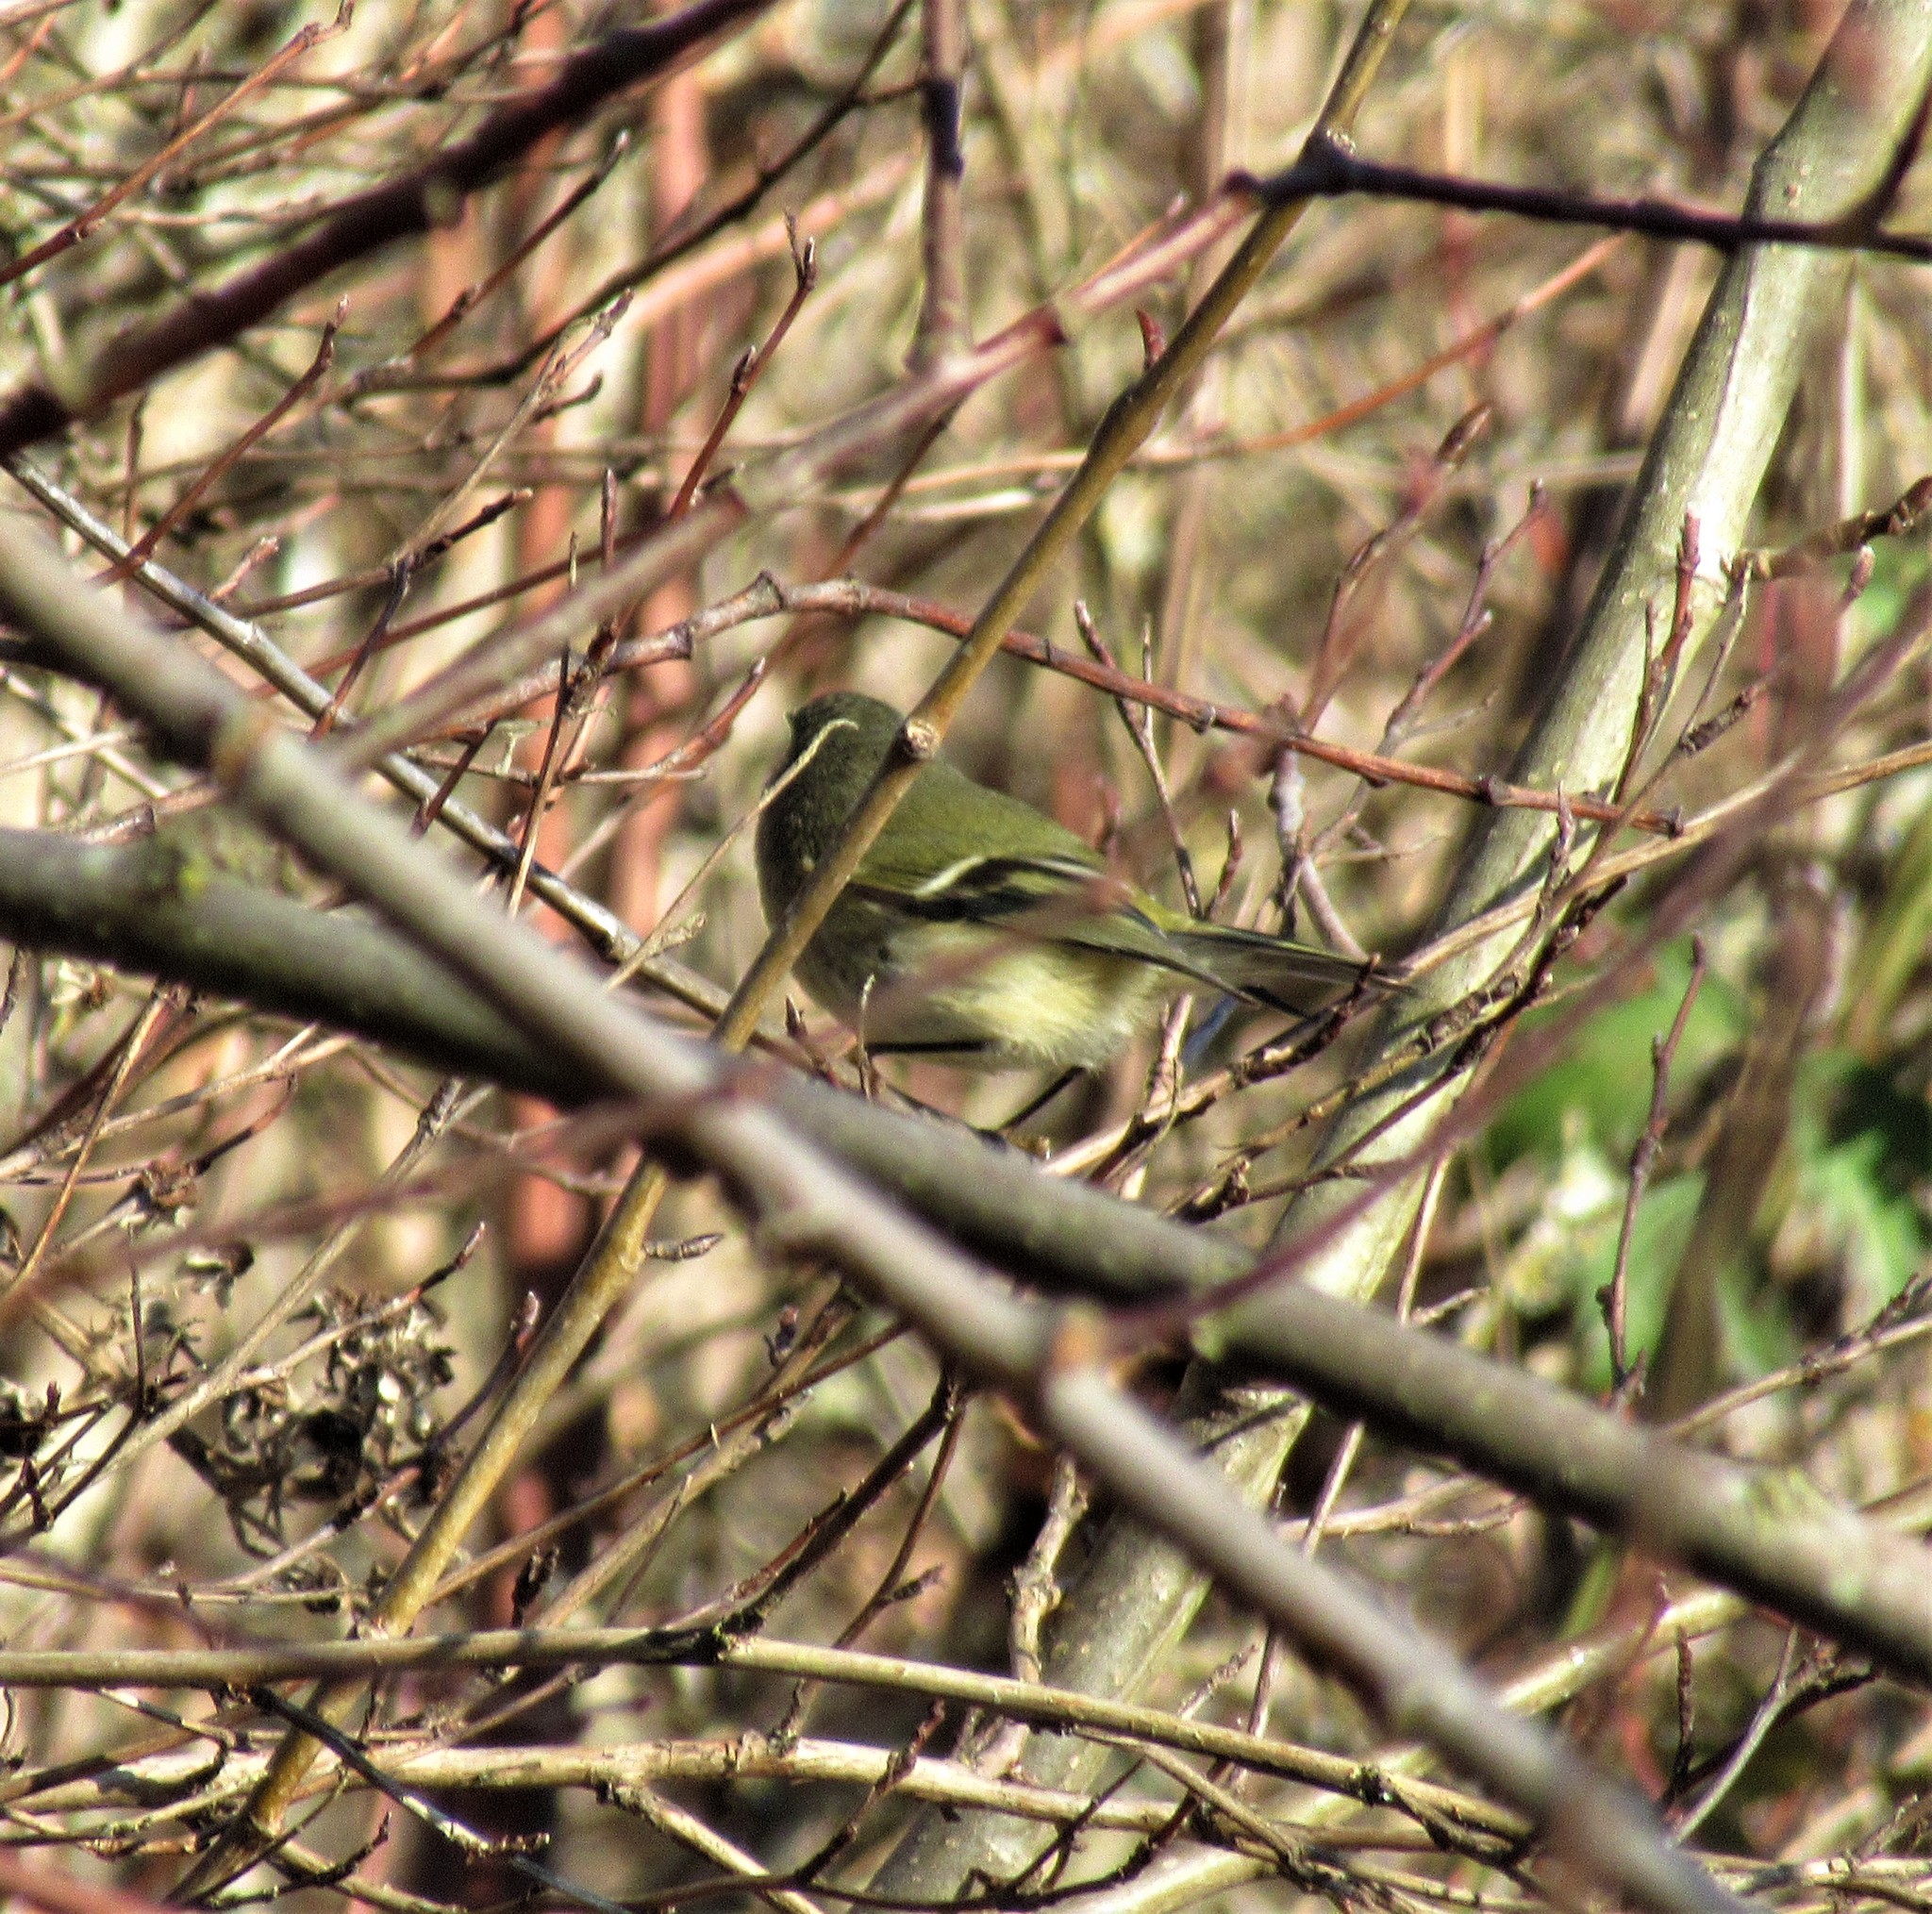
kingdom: Animalia
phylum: Chordata
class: Aves
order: Passeriformes
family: Regulidae
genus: Regulus
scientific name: Regulus calendula
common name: Ruby-crowned kinglet
